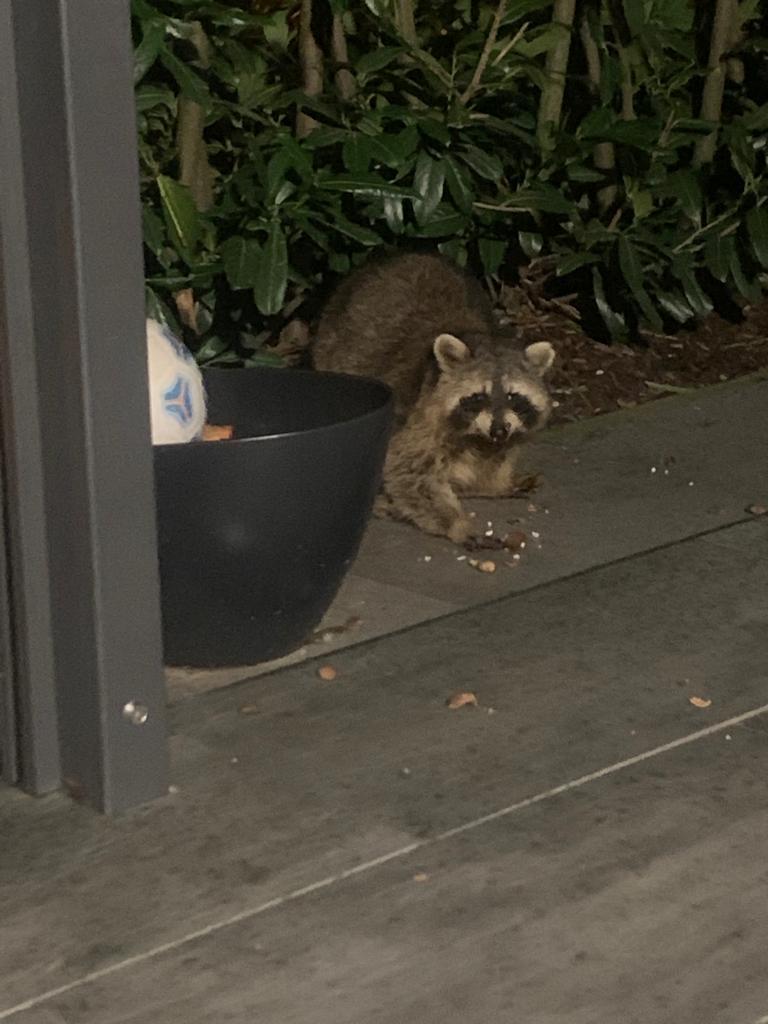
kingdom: Animalia
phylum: Chordata
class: Mammalia
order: Carnivora
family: Procyonidae
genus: Procyon
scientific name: Procyon lotor
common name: Raccoon
